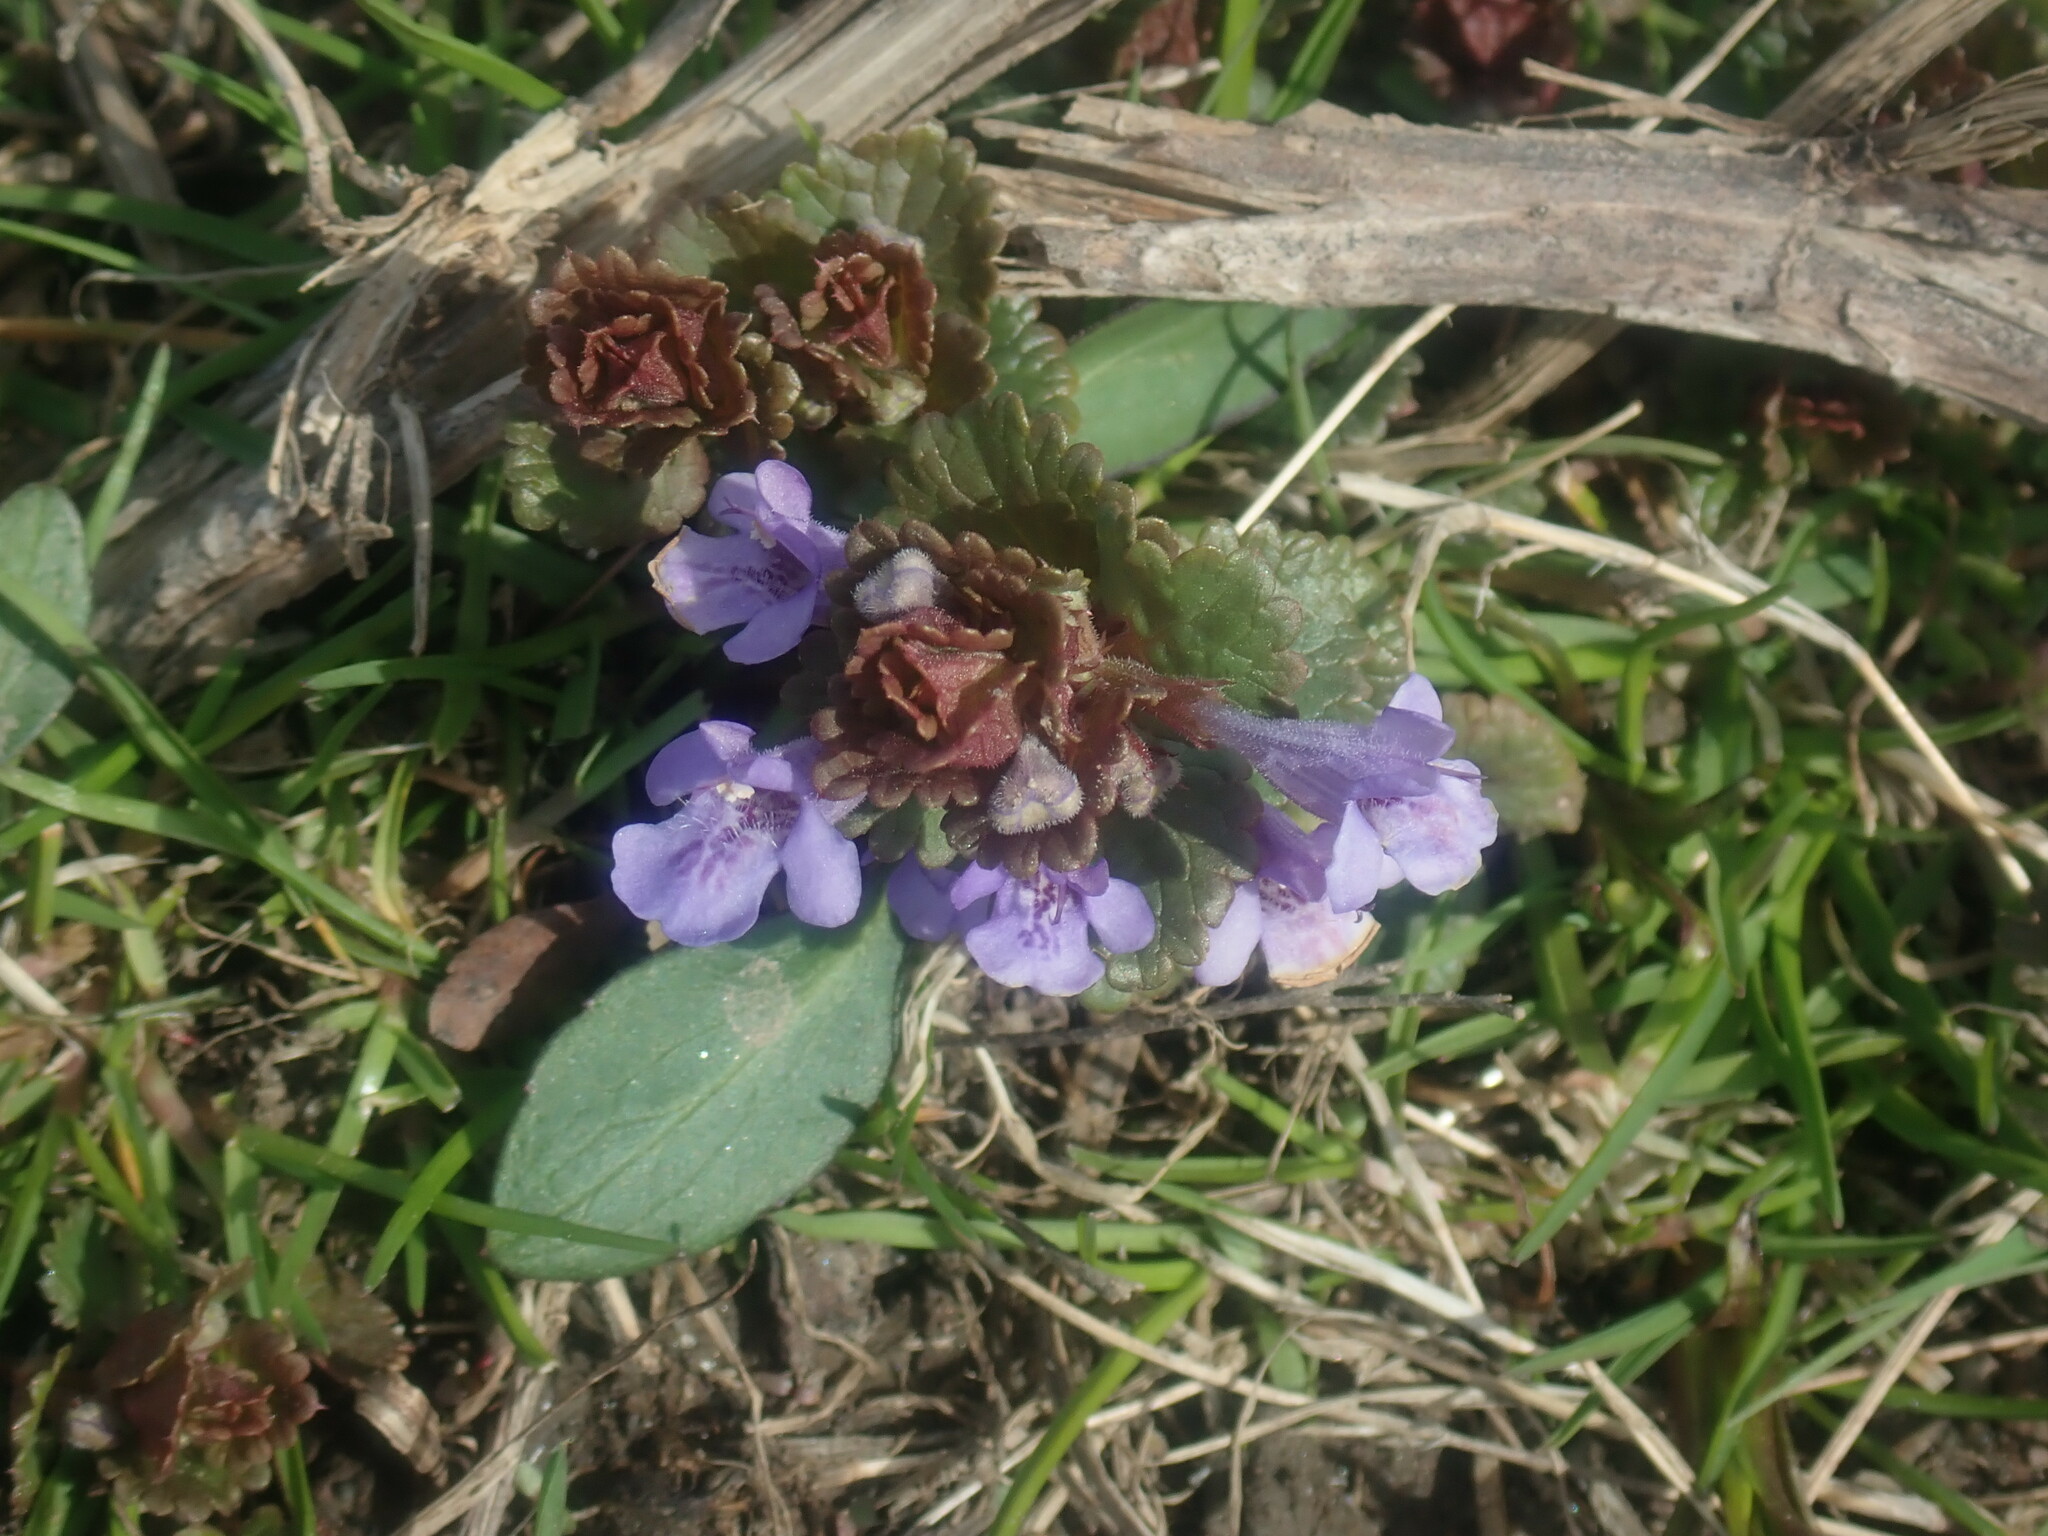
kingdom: Plantae
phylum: Tracheophyta
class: Magnoliopsida
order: Lamiales
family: Lamiaceae
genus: Glechoma
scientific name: Glechoma hederacea
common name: Ground ivy
